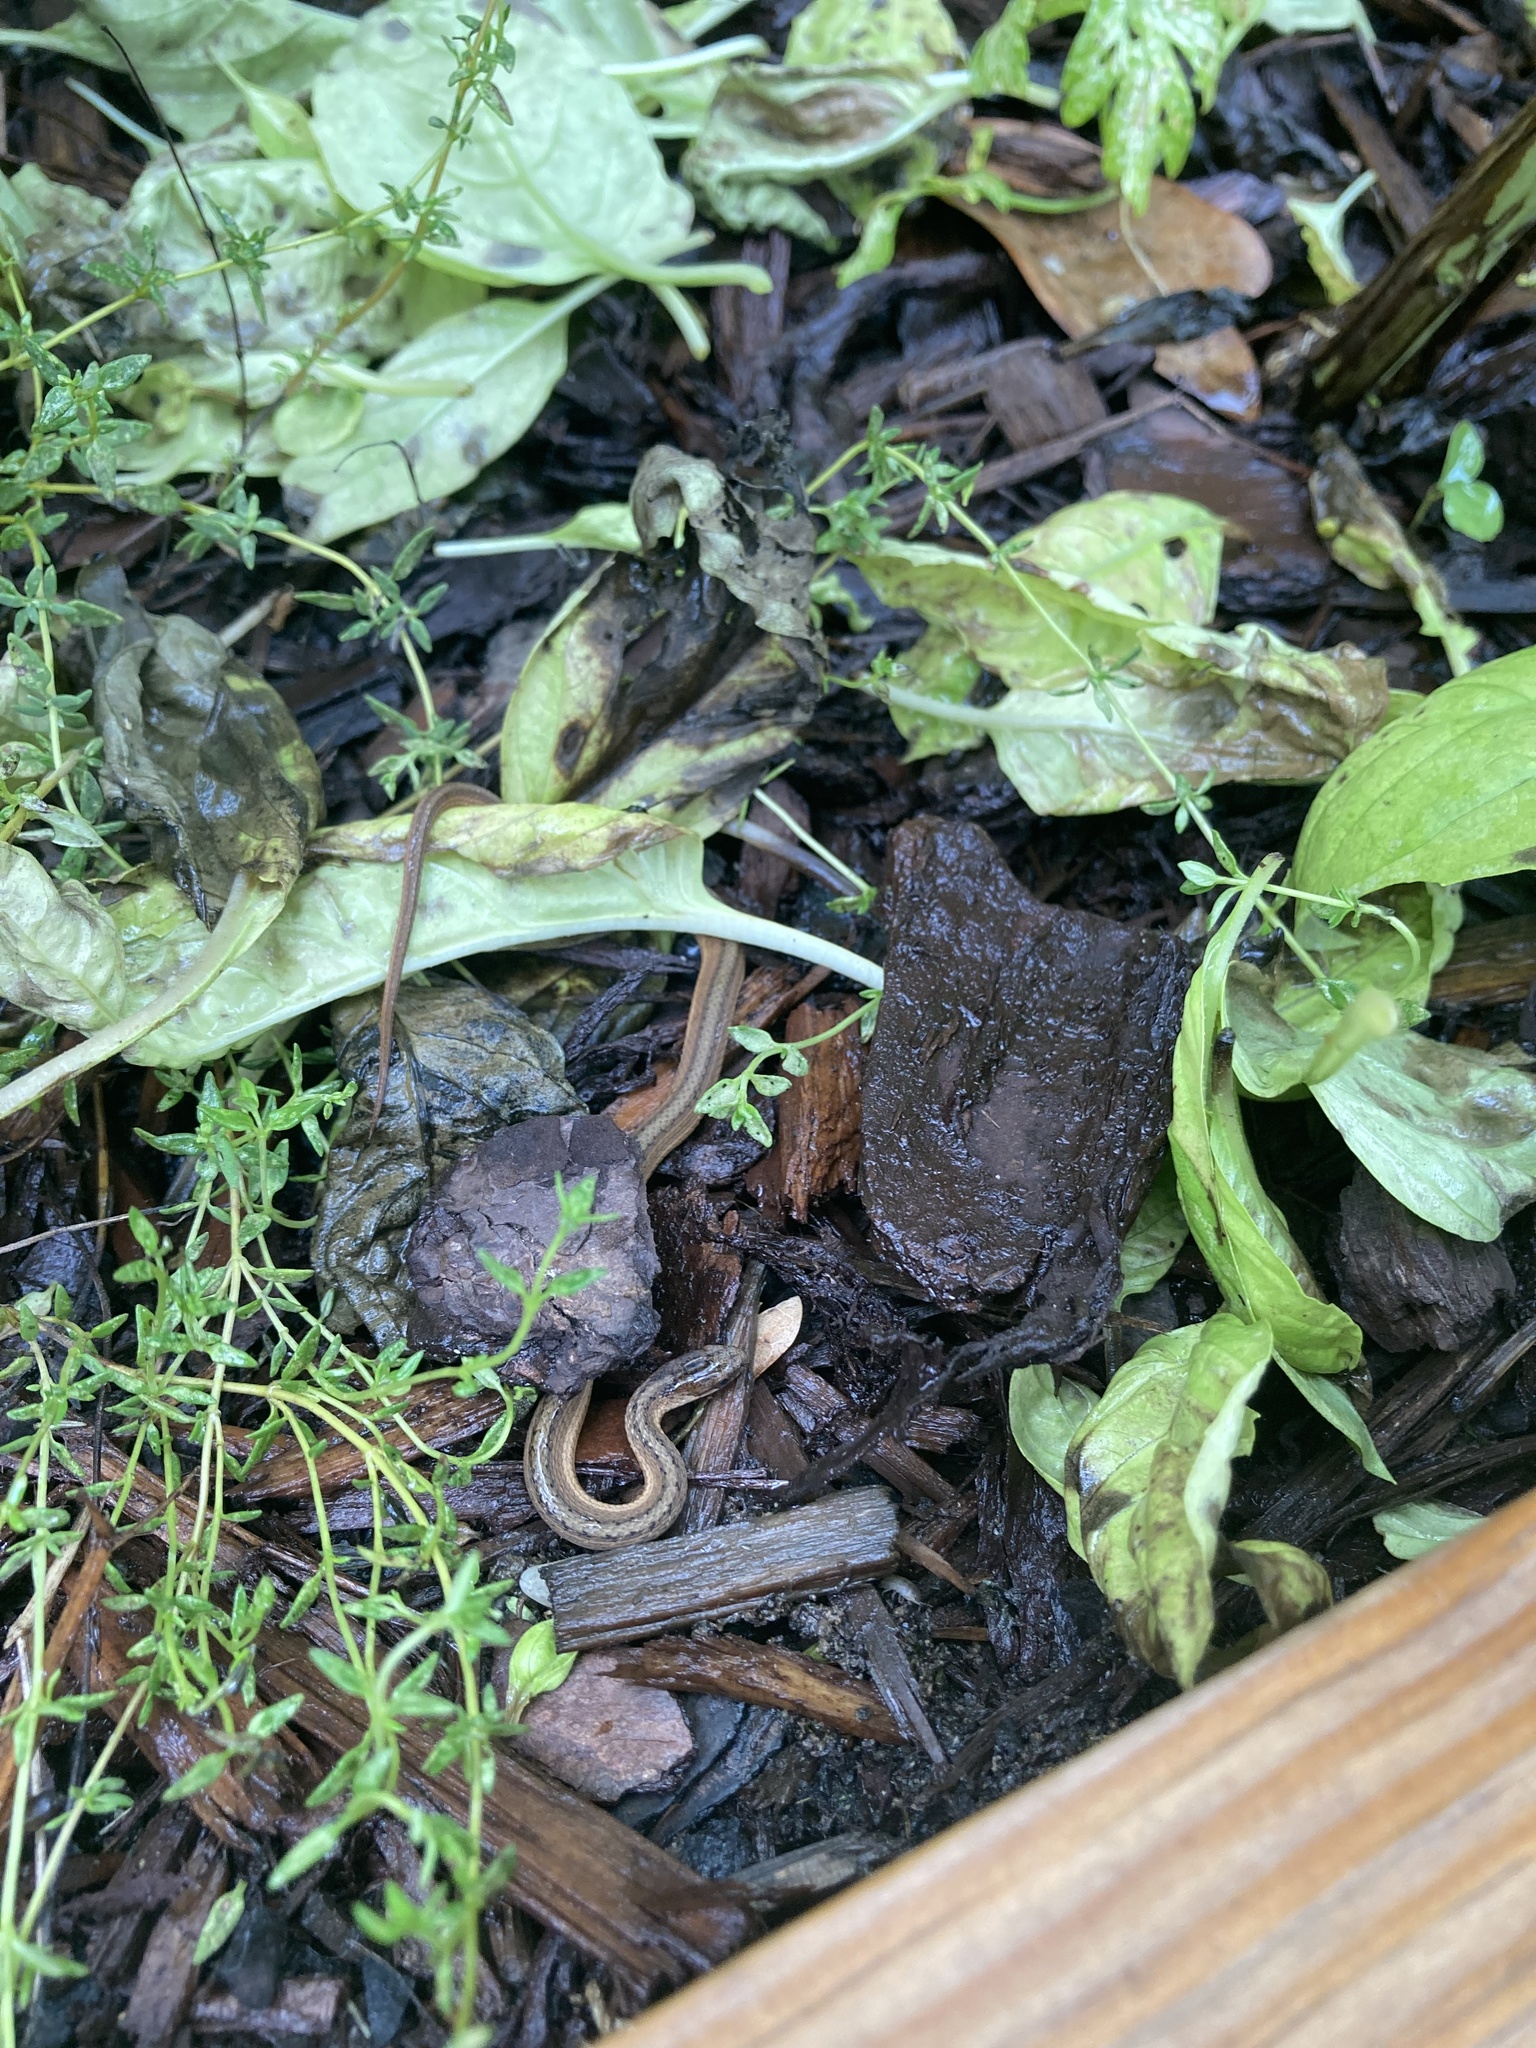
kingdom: Animalia
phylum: Chordata
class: Squamata
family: Colubridae
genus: Storeria
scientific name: Storeria dekayi
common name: (dekay’s) brown snake
